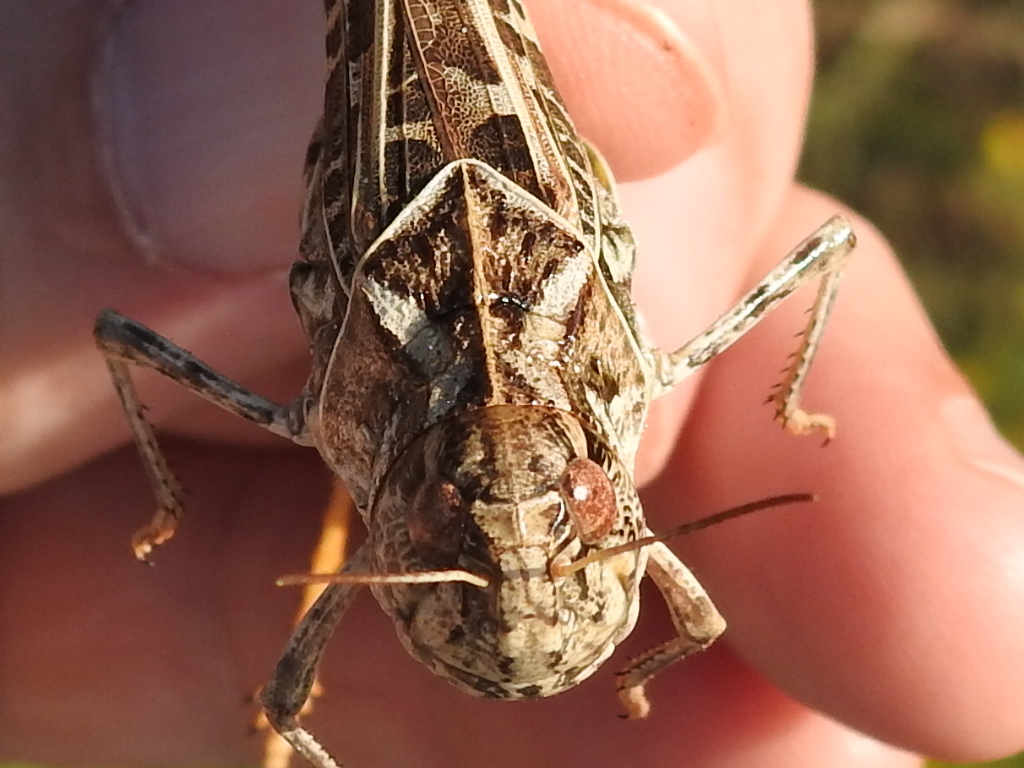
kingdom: Animalia
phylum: Arthropoda
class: Insecta
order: Orthoptera
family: Acrididae
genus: Hippiscus
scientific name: Hippiscus ocelote
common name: Wrinkled grasshopper
